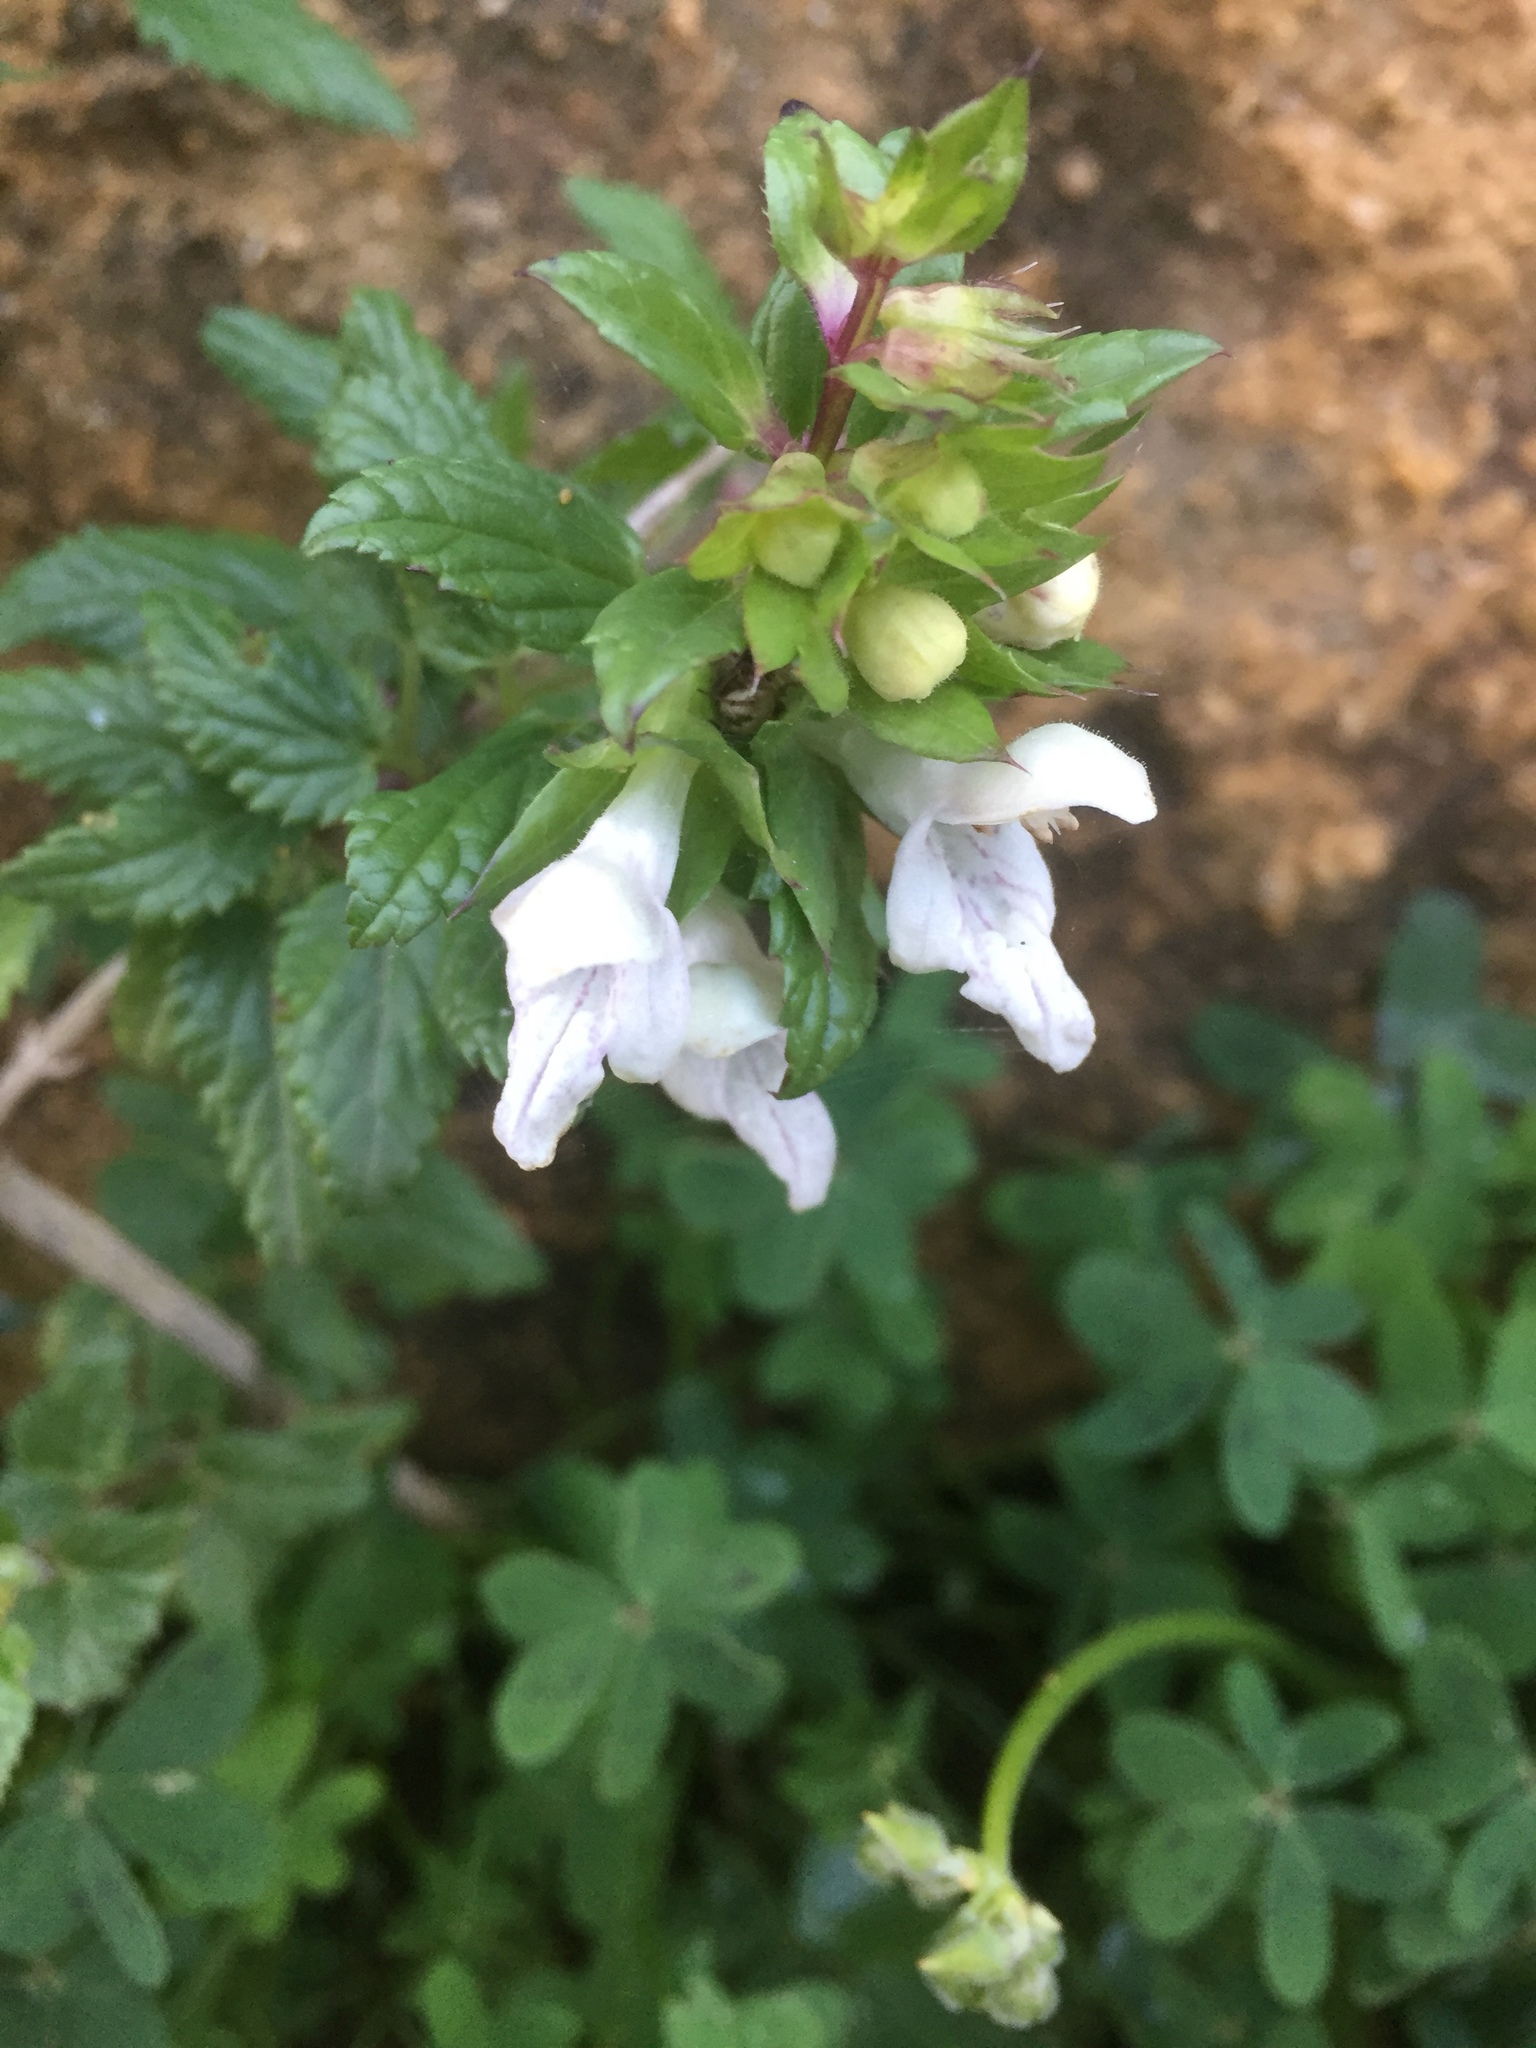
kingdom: Plantae
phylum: Tracheophyta
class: Magnoliopsida
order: Lamiales
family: Lamiaceae
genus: Prasium
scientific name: Prasium majus
